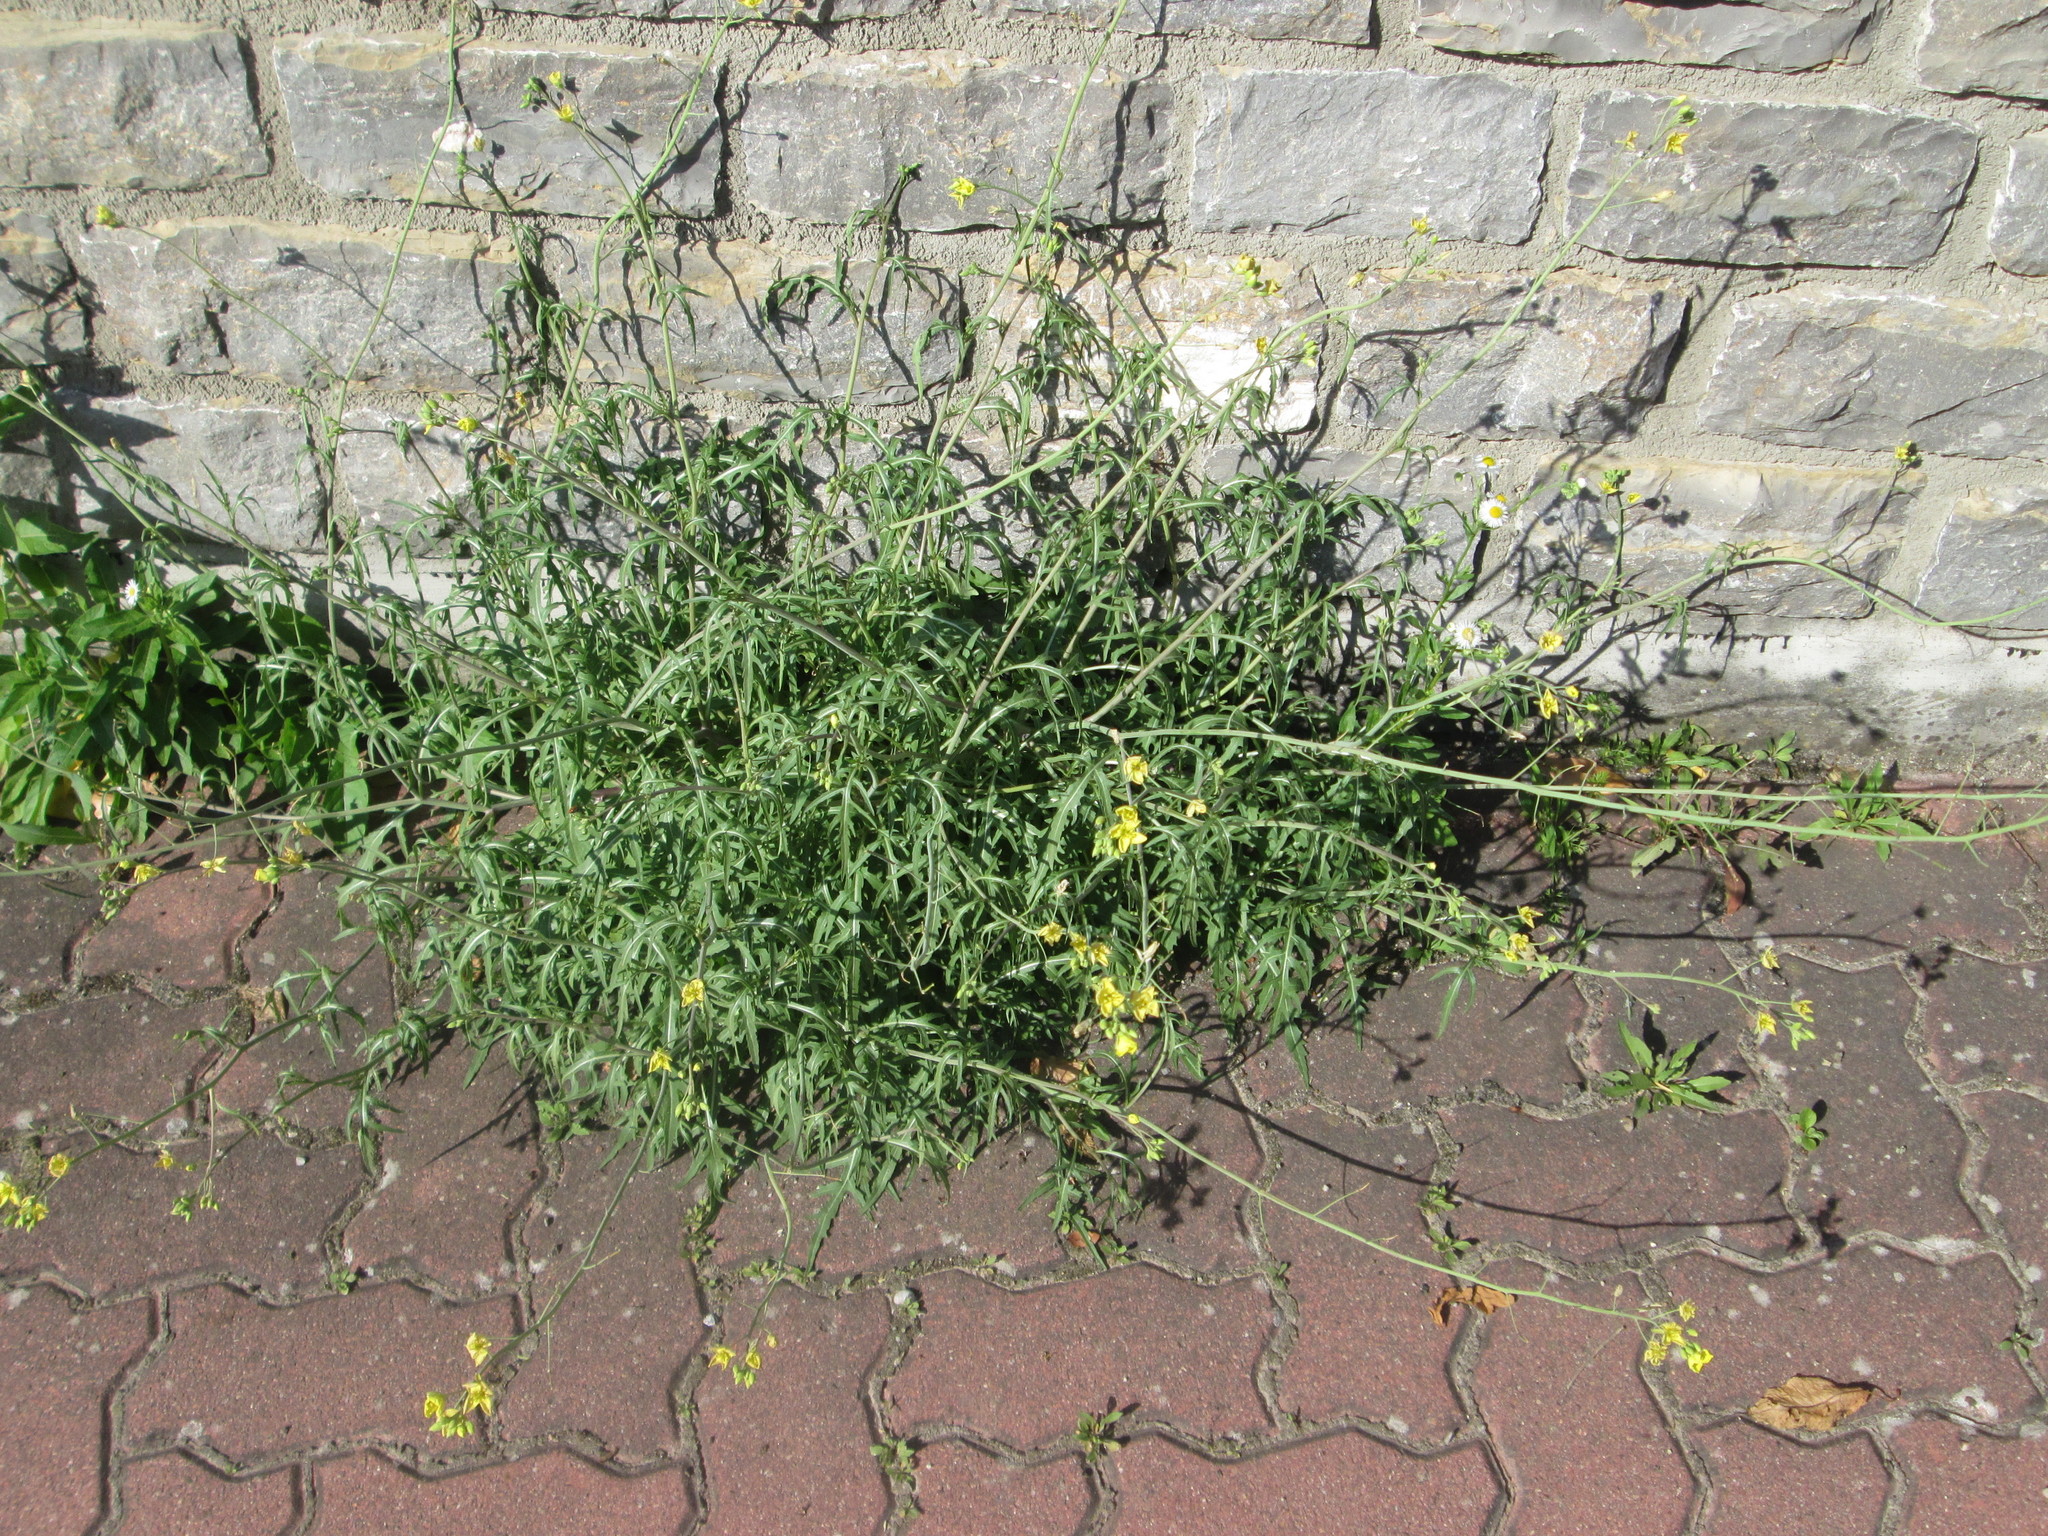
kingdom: Plantae
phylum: Tracheophyta
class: Magnoliopsida
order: Brassicales
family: Brassicaceae
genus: Diplotaxis
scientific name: Diplotaxis tenuifolia
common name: Perennial wall-rocket
